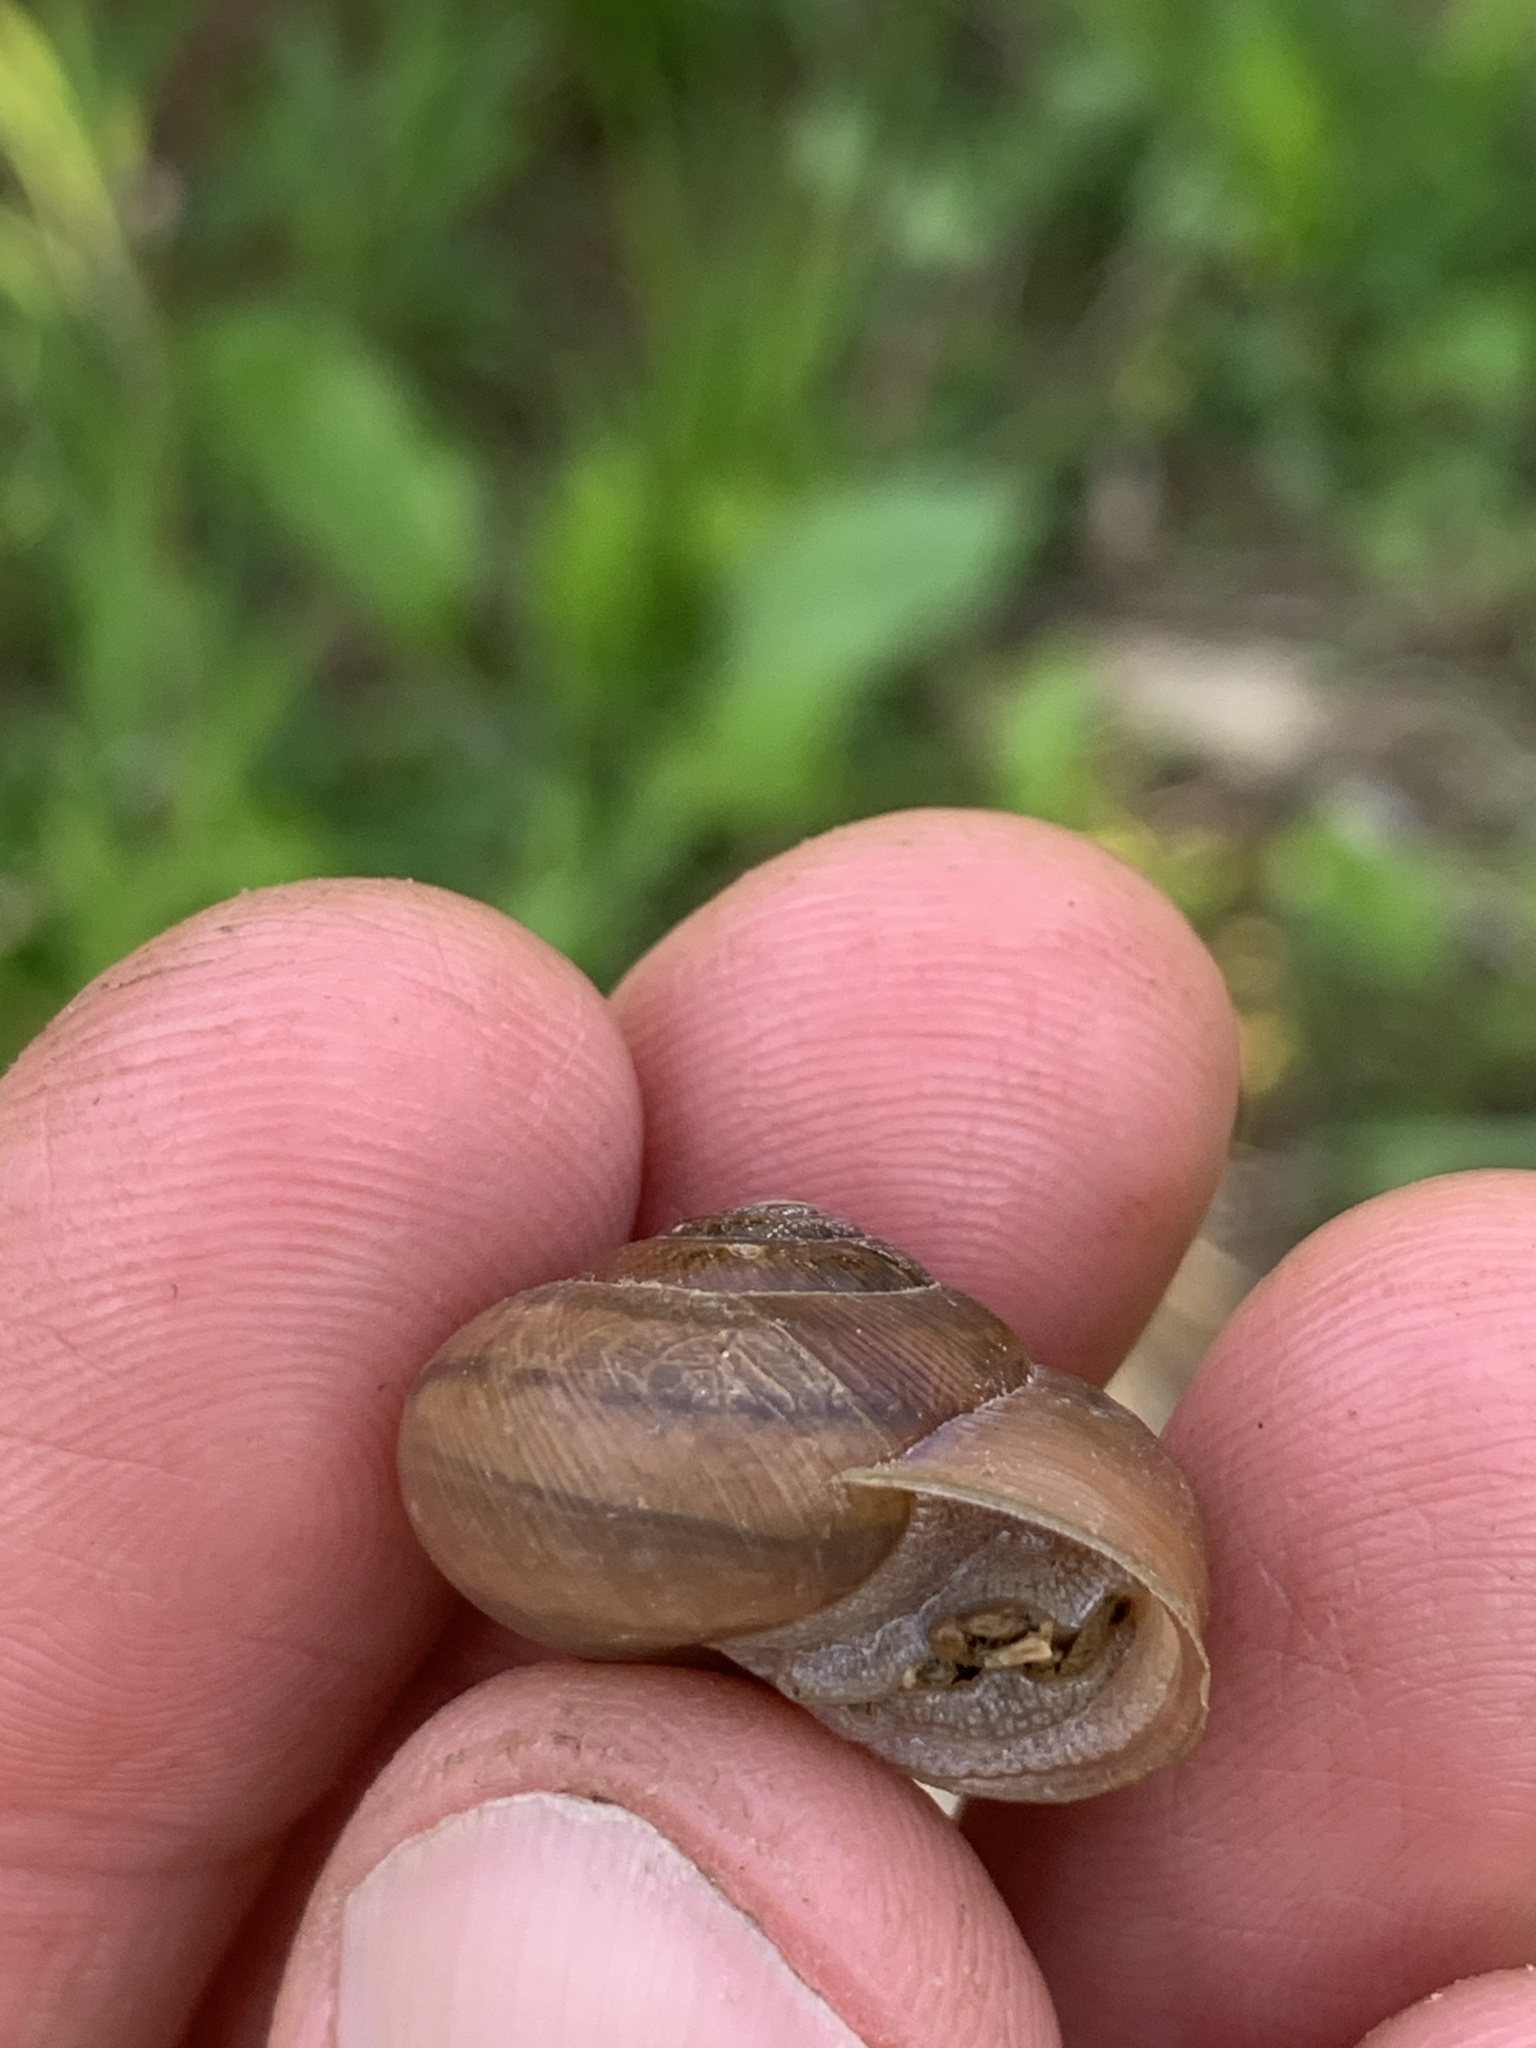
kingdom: Animalia
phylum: Mollusca
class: Gastropoda
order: Stylommatophora
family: Polygyridae
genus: Mesodon
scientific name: Mesodon thyroidus
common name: White-lip globe
